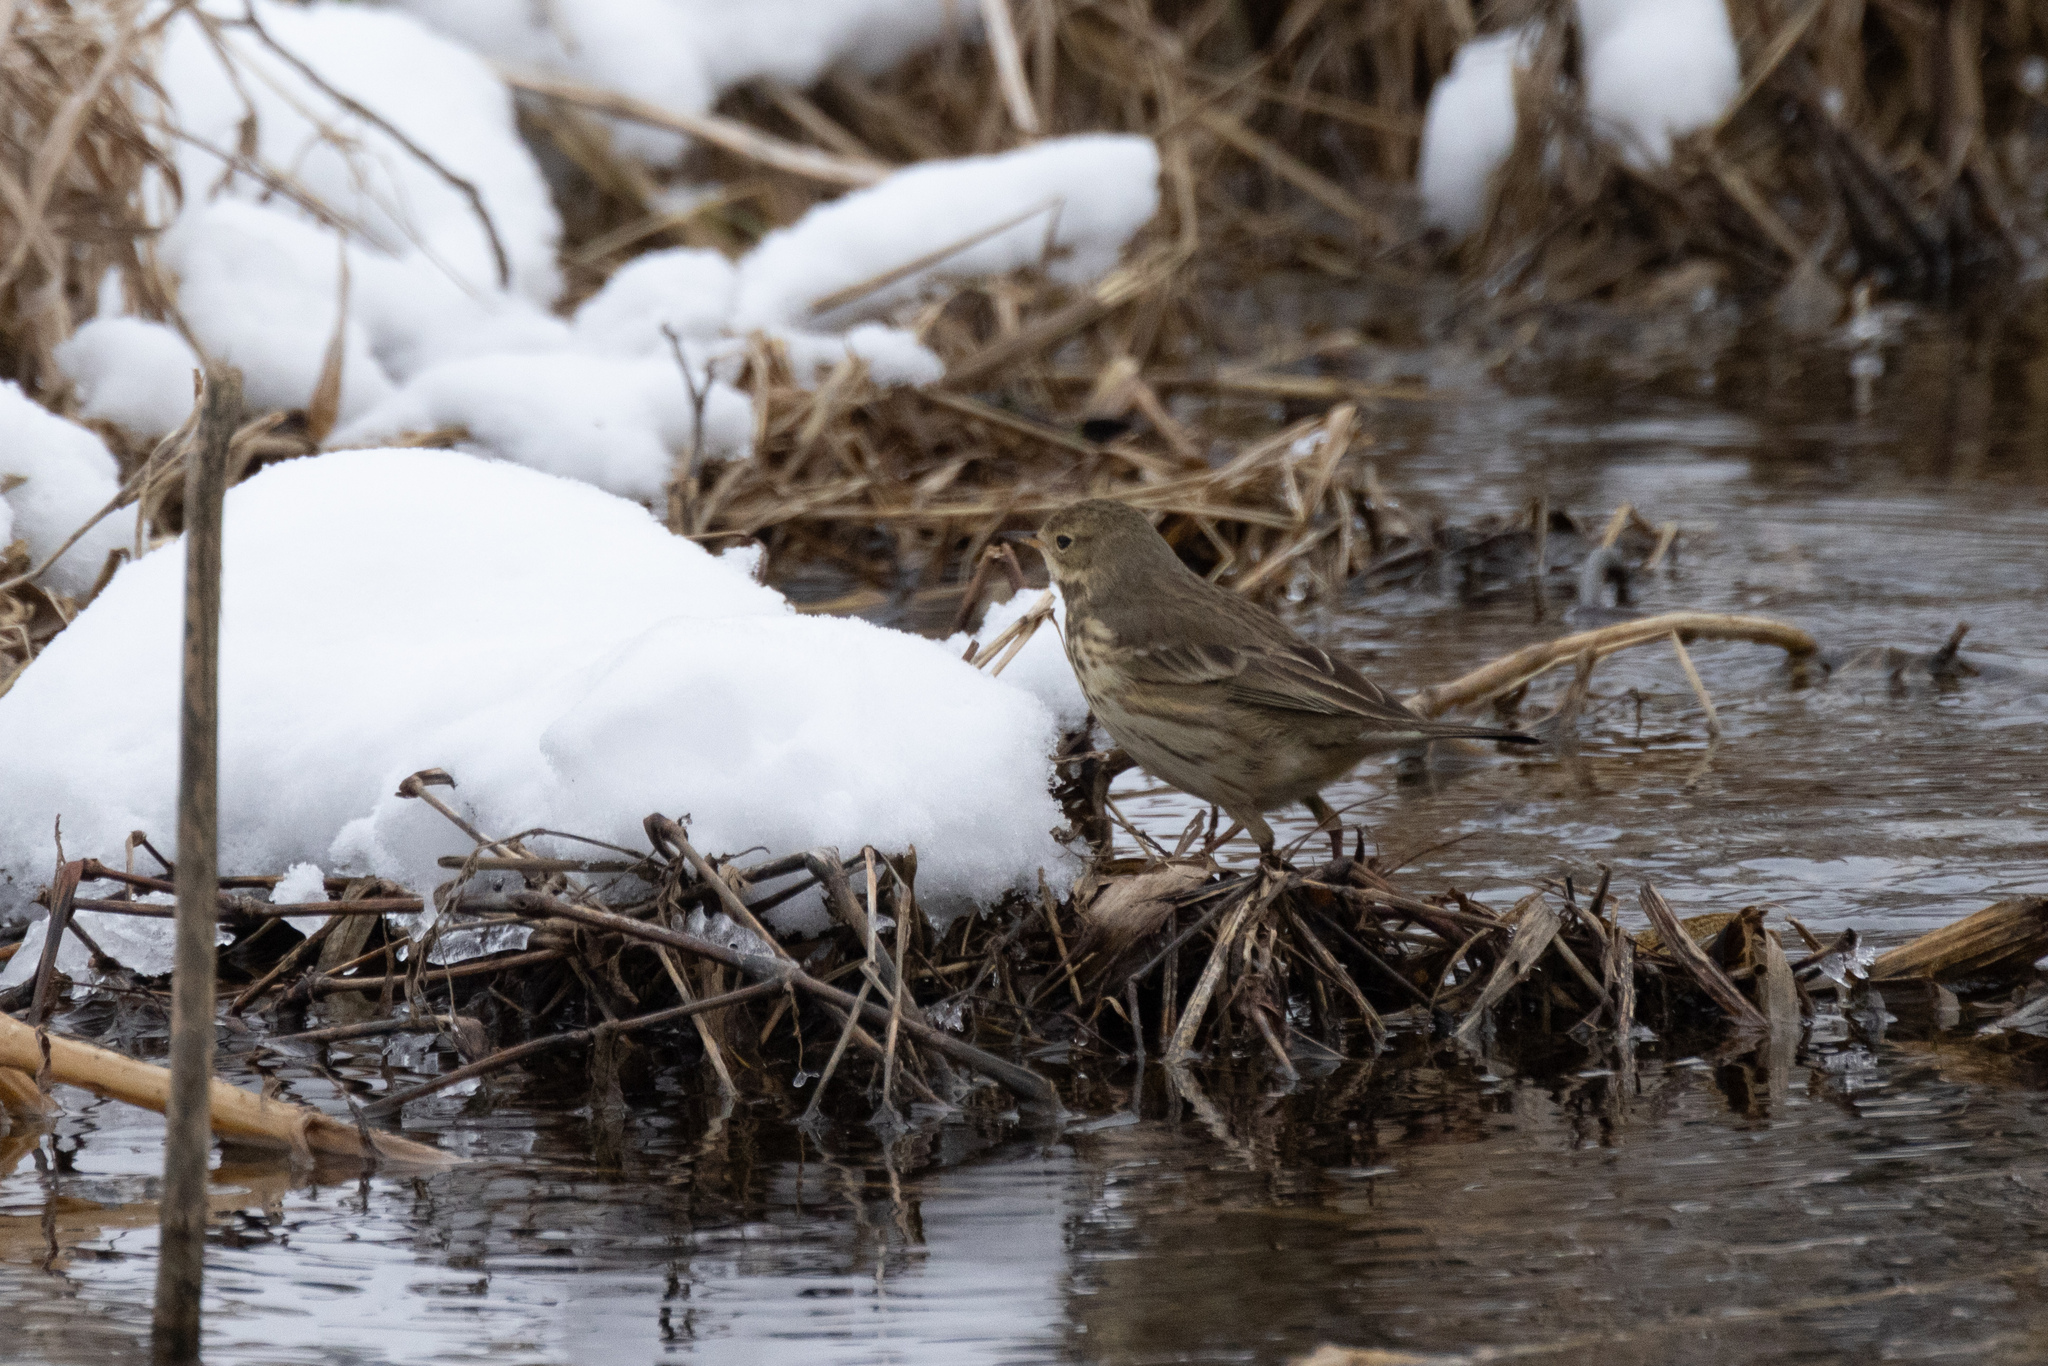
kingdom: Animalia
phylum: Chordata
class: Aves
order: Passeriformes
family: Motacillidae
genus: Anthus
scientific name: Anthus rubescens
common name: Buff-bellied pipit
